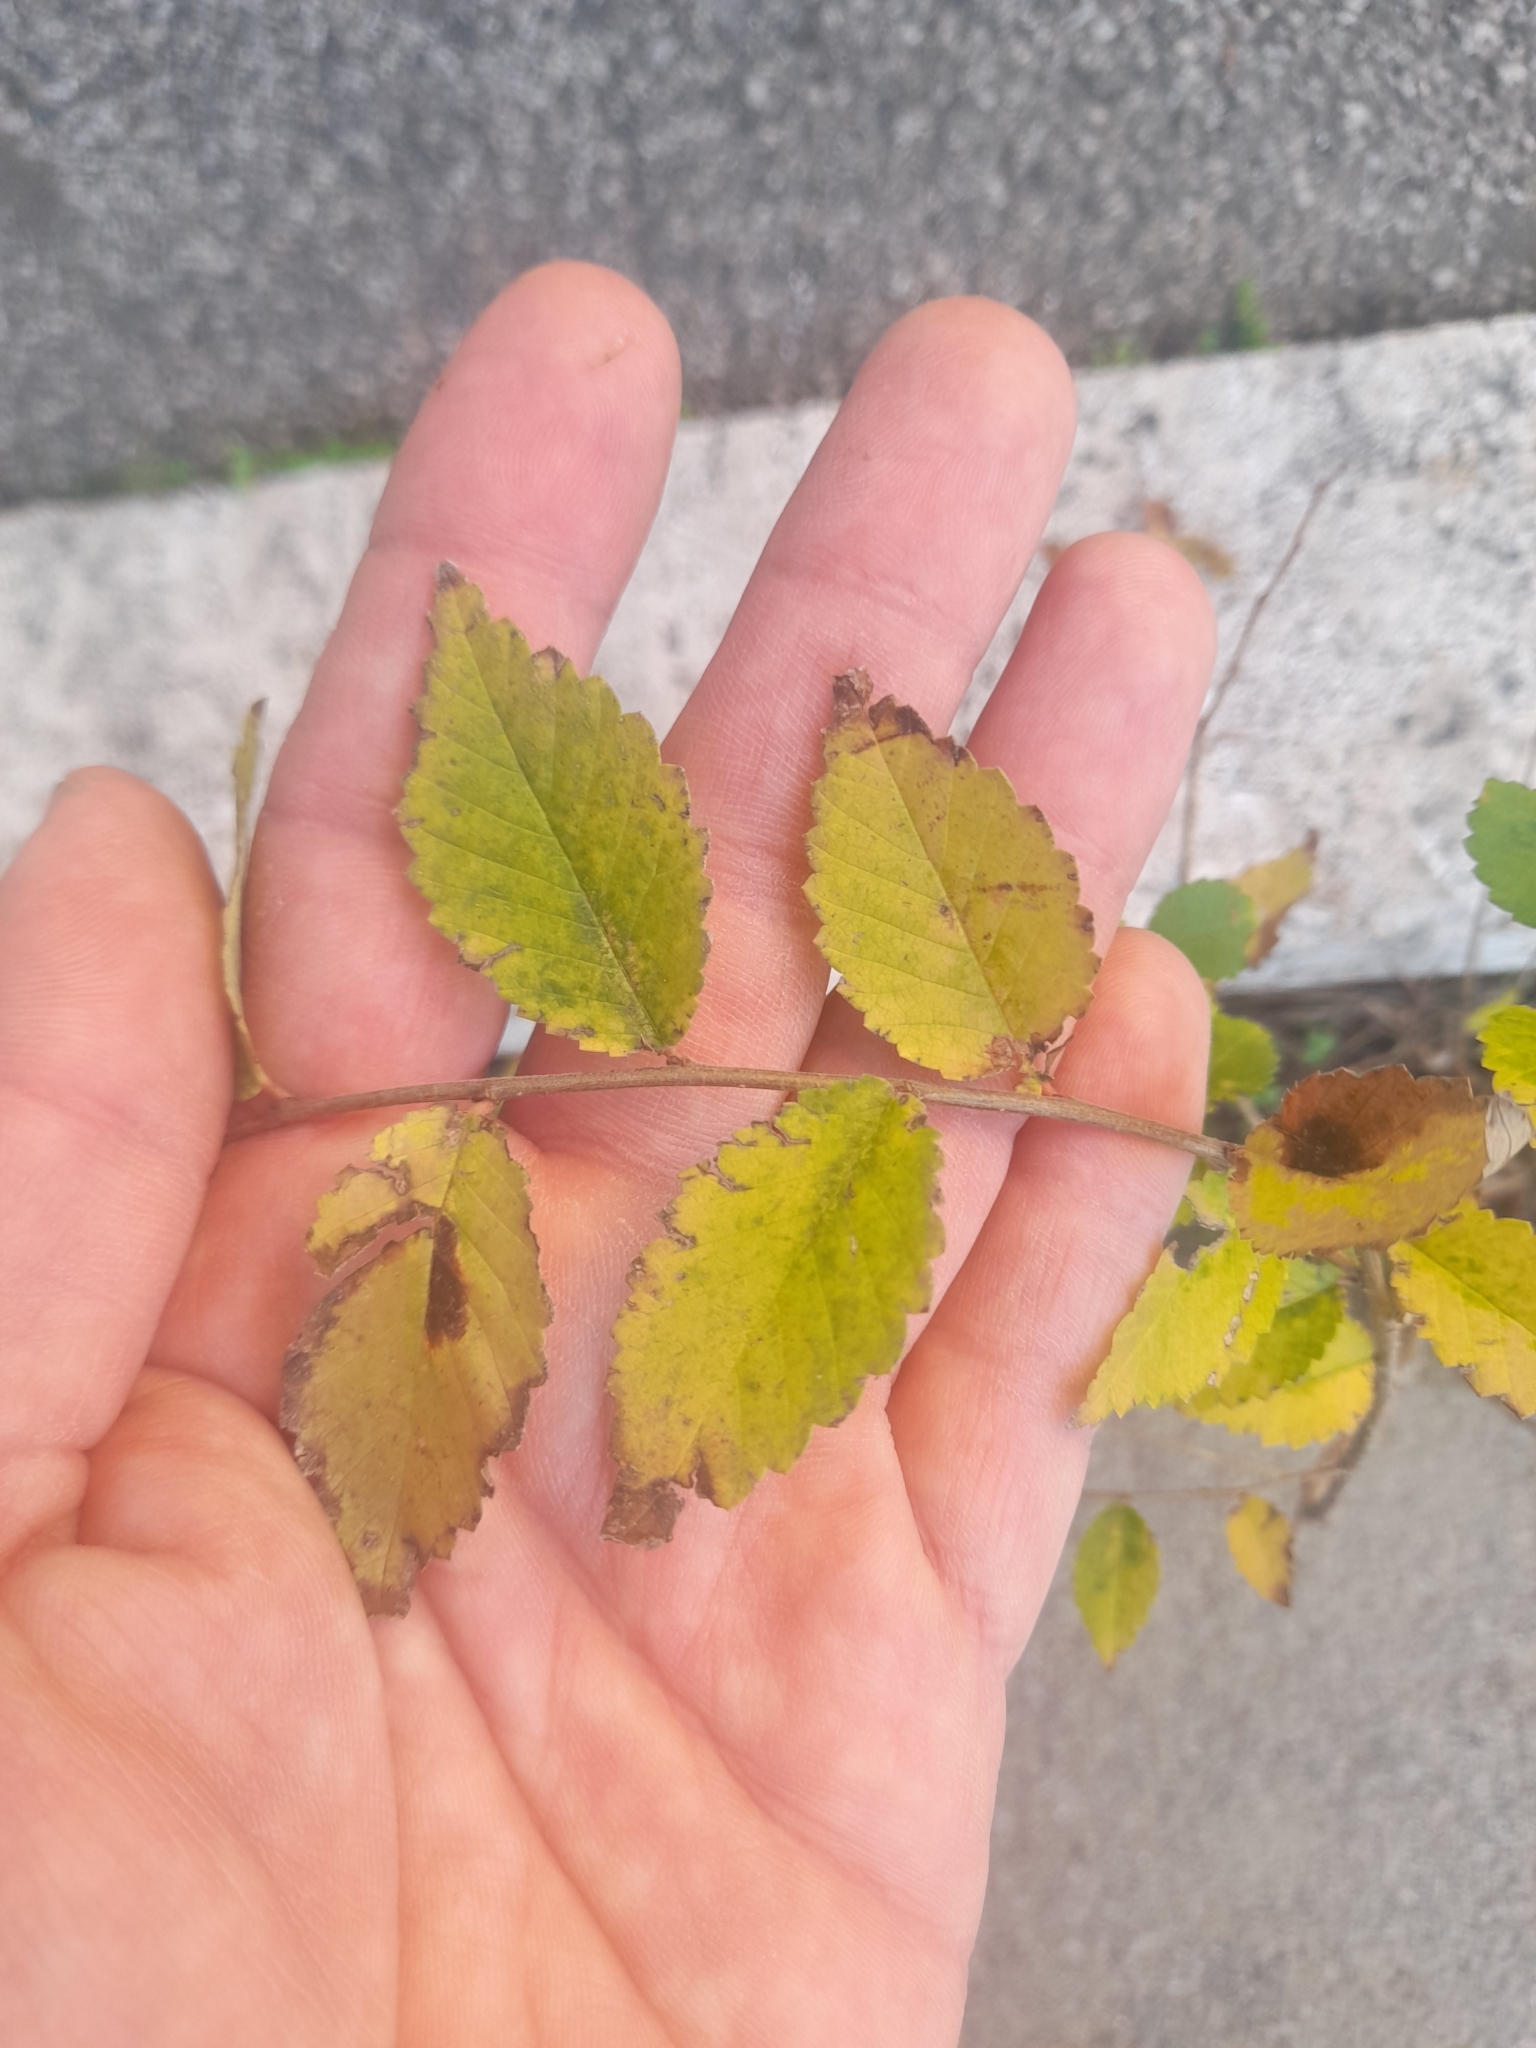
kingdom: Plantae
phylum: Tracheophyta
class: Magnoliopsida
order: Rosales
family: Ulmaceae
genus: Ulmus
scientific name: Ulmus minor
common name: Small-leaved elm
